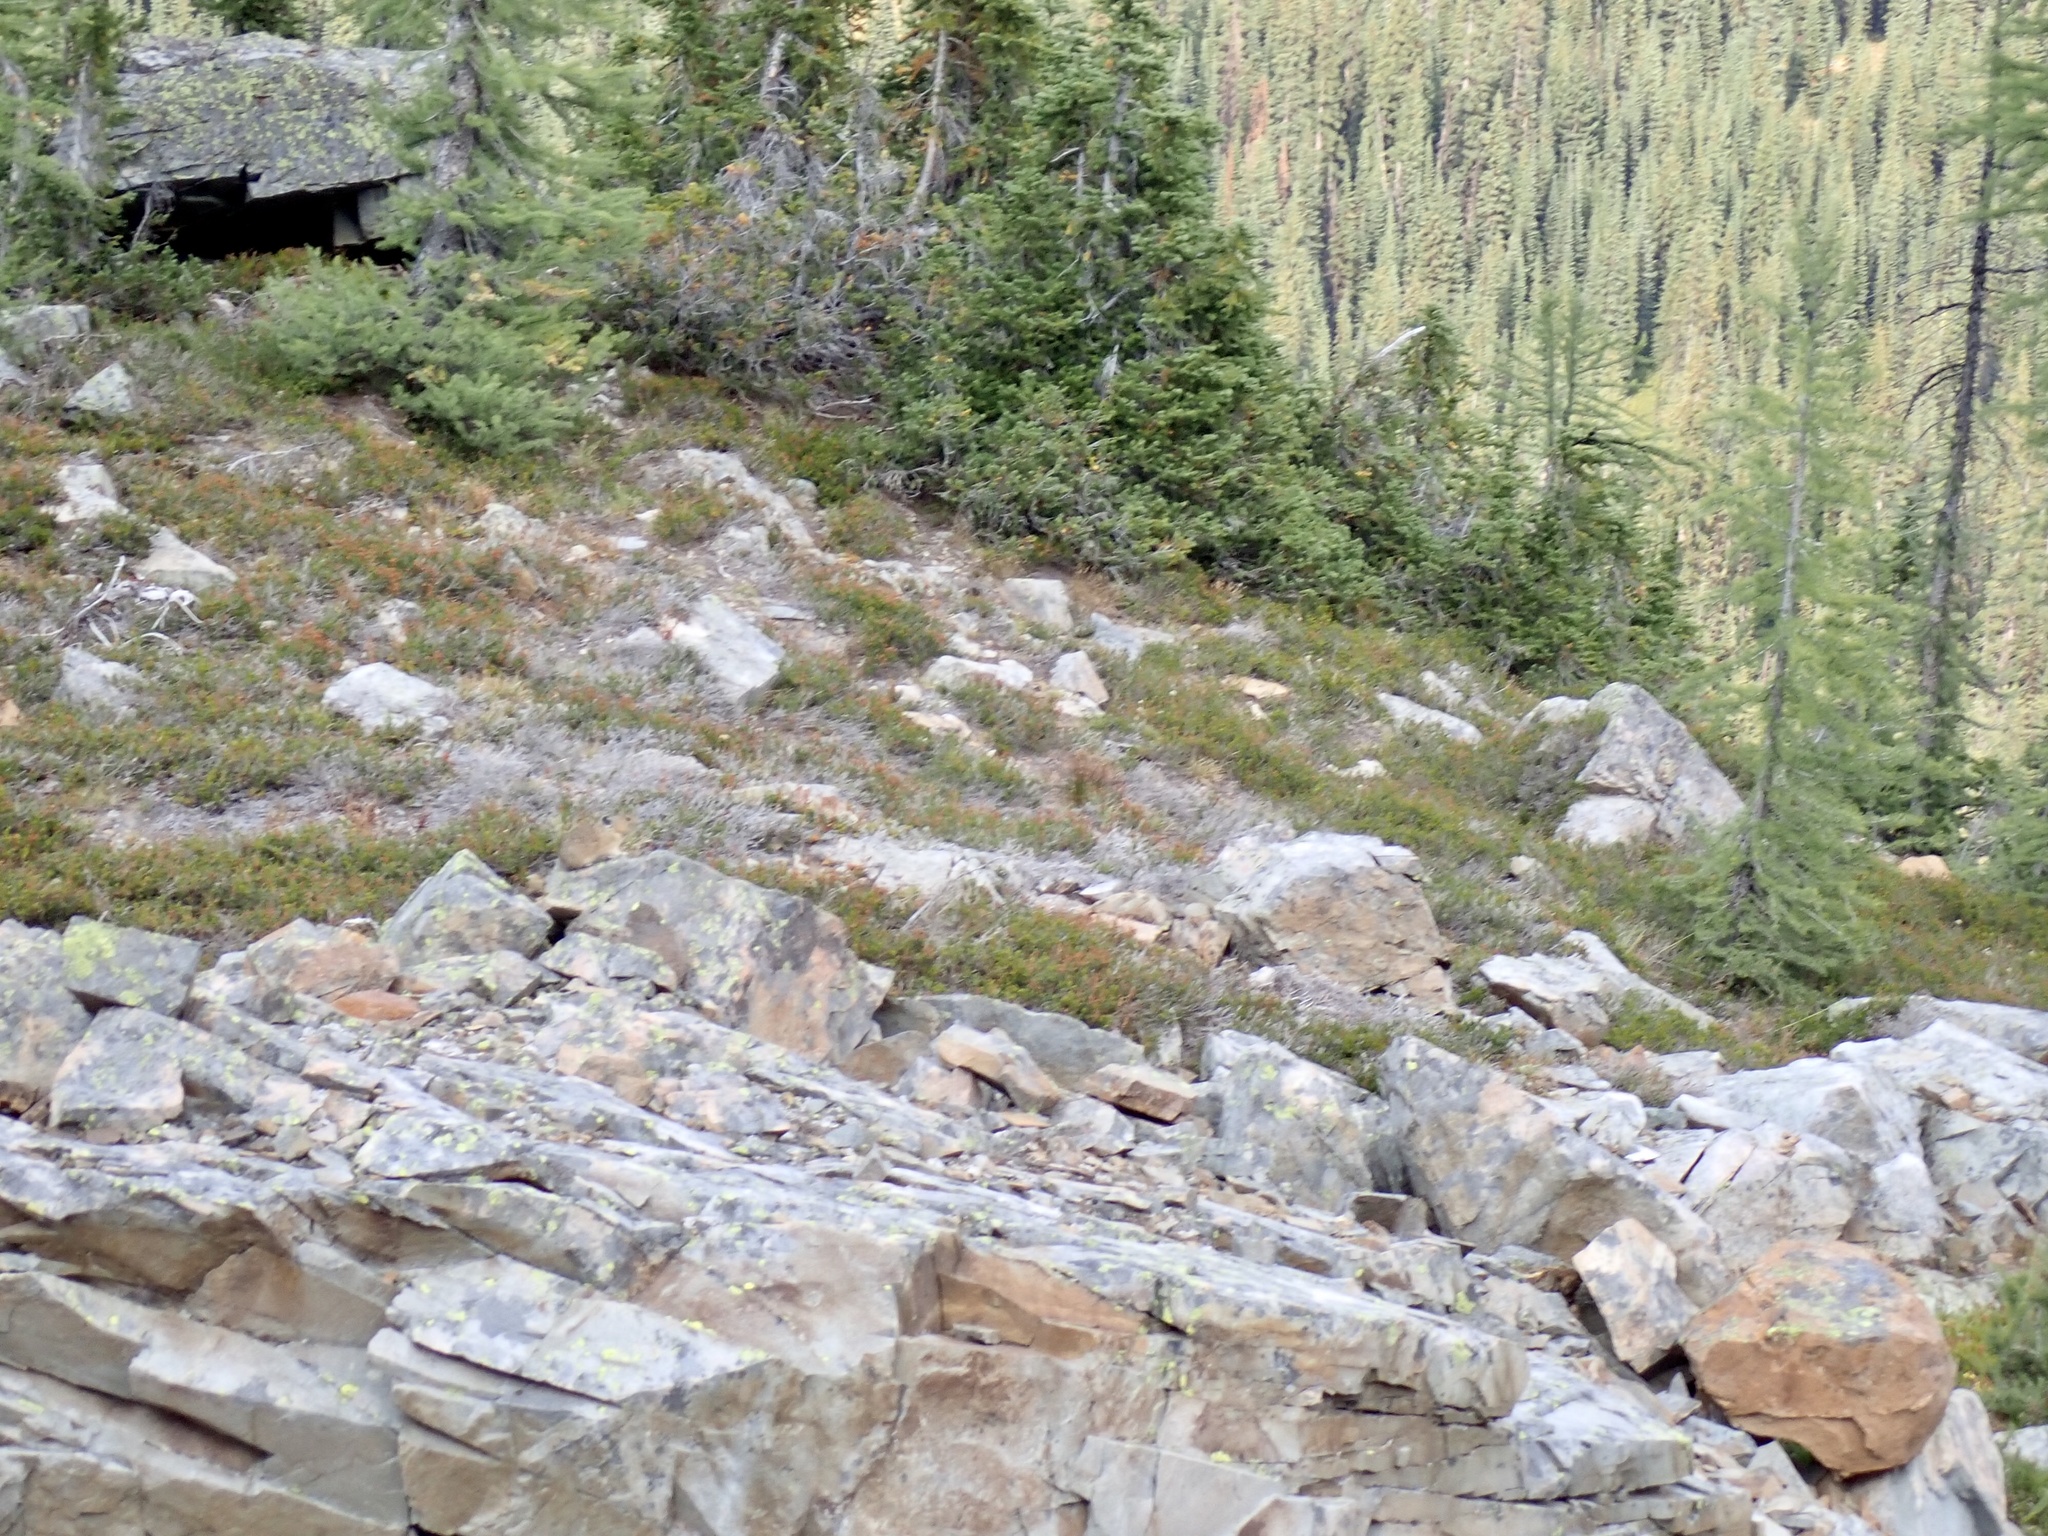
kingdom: Animalia
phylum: Chordata
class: Mammalia
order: Lagomorpha
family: Ochotonidae
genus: Ochotona
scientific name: Ochotona princeps
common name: American pika
